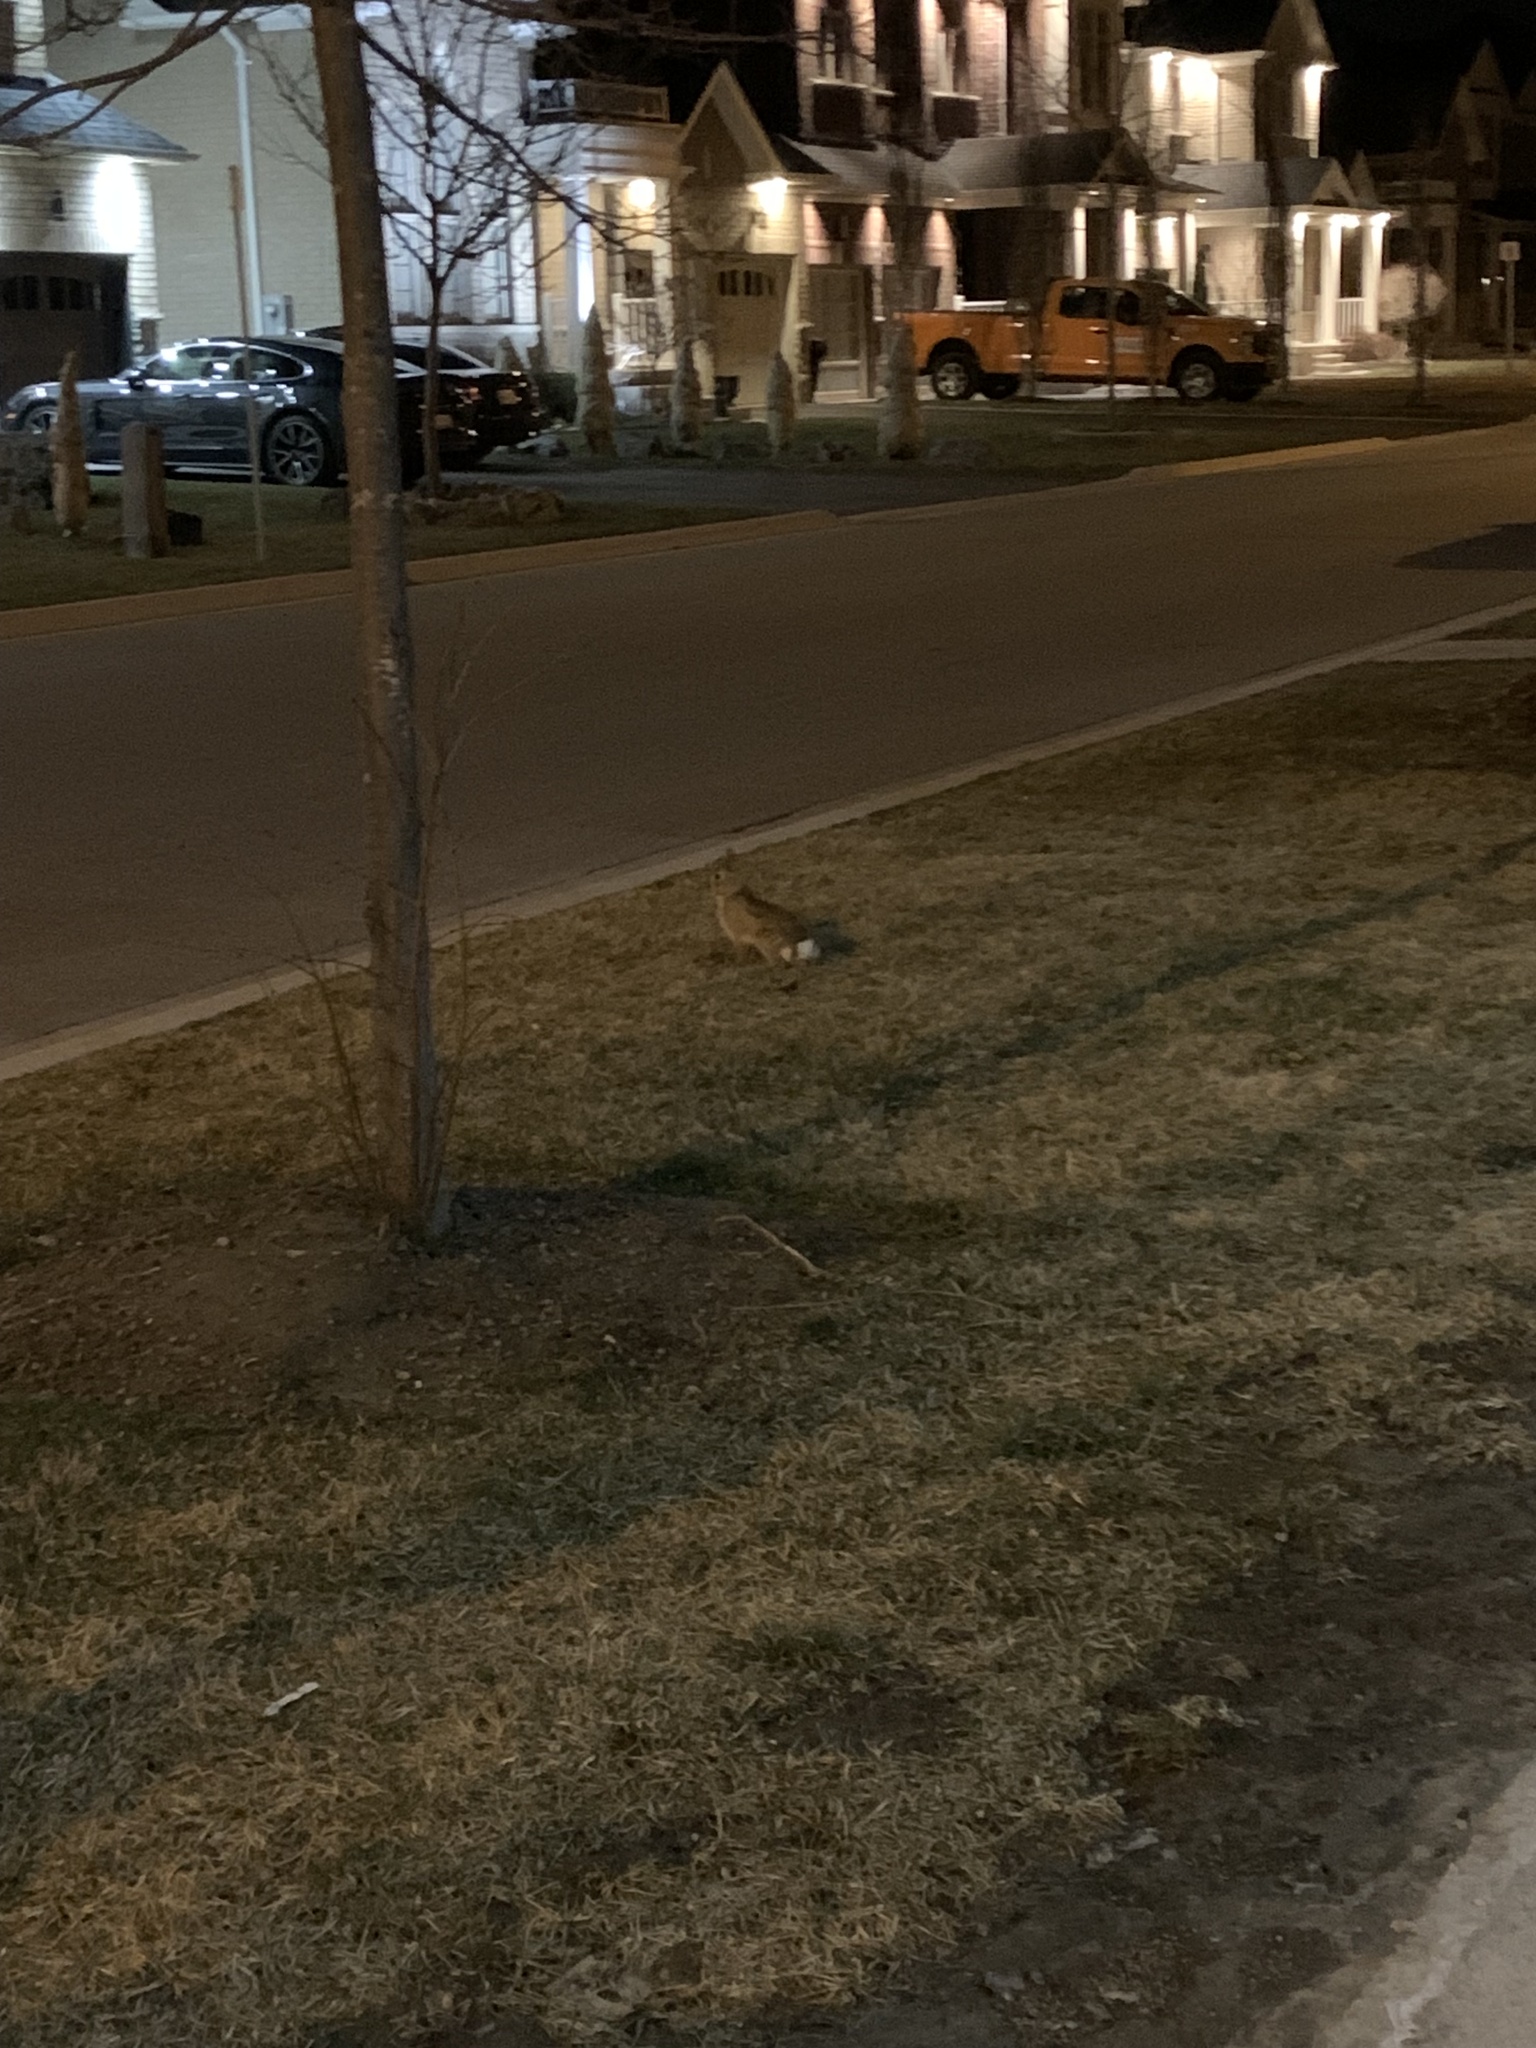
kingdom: Animalia
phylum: Chordata
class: Mammalia
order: Lagomorpha
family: Leporidae
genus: Sylvilagus
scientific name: Sylvilagus floridanus
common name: Eastern cottontail
